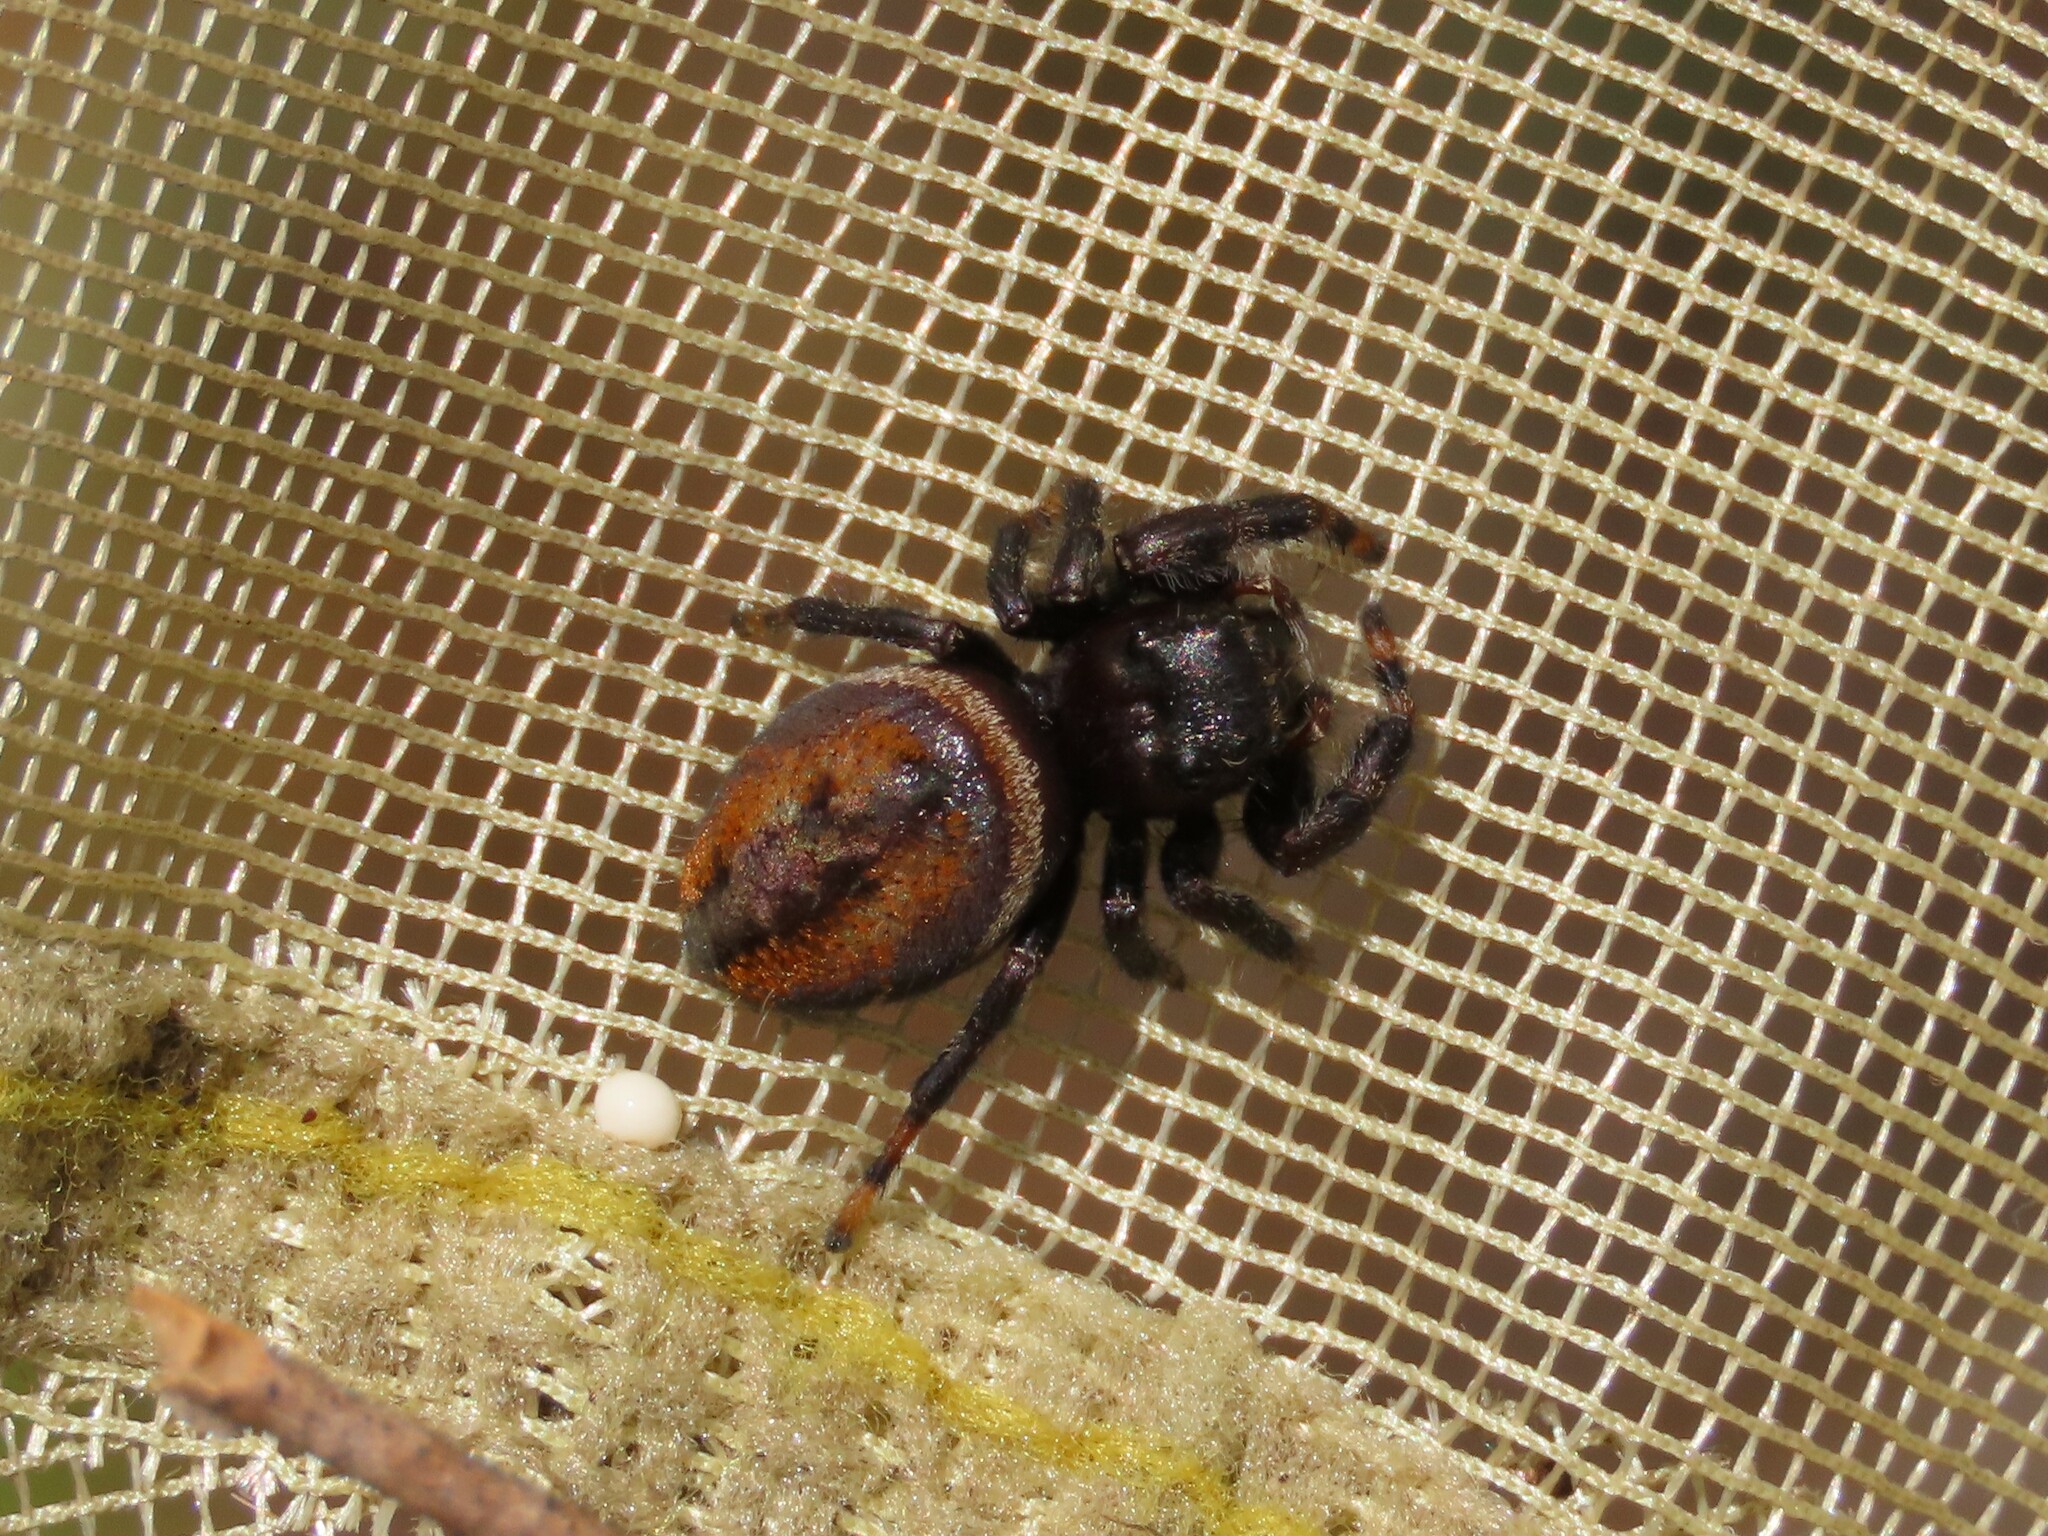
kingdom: Animalia
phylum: Arthropoda
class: Arachnida
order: Araneae
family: Salticidae
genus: Phidippus
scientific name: Phidippus clarus
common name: Brilliant jumping spider
